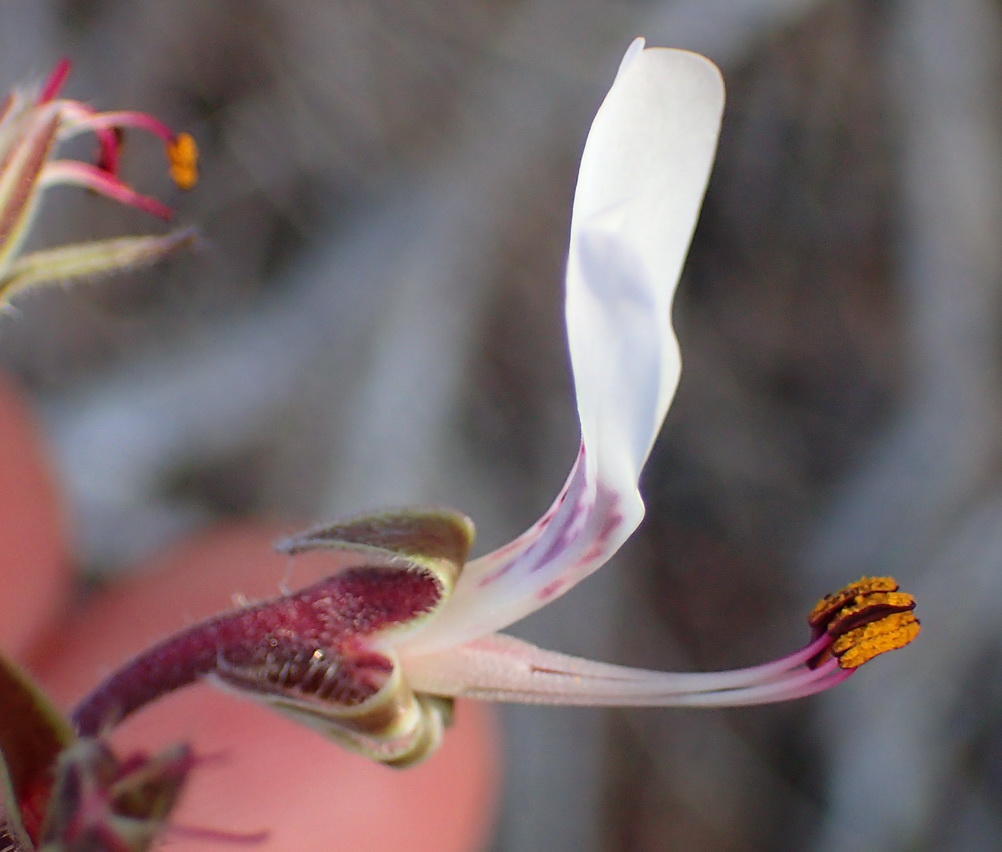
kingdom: Plantae
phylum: Tracheophyta
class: Magnoliopsida
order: Geraniales
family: Geraniaceae
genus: Pelargonium
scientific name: Pelargonium dipetalum
